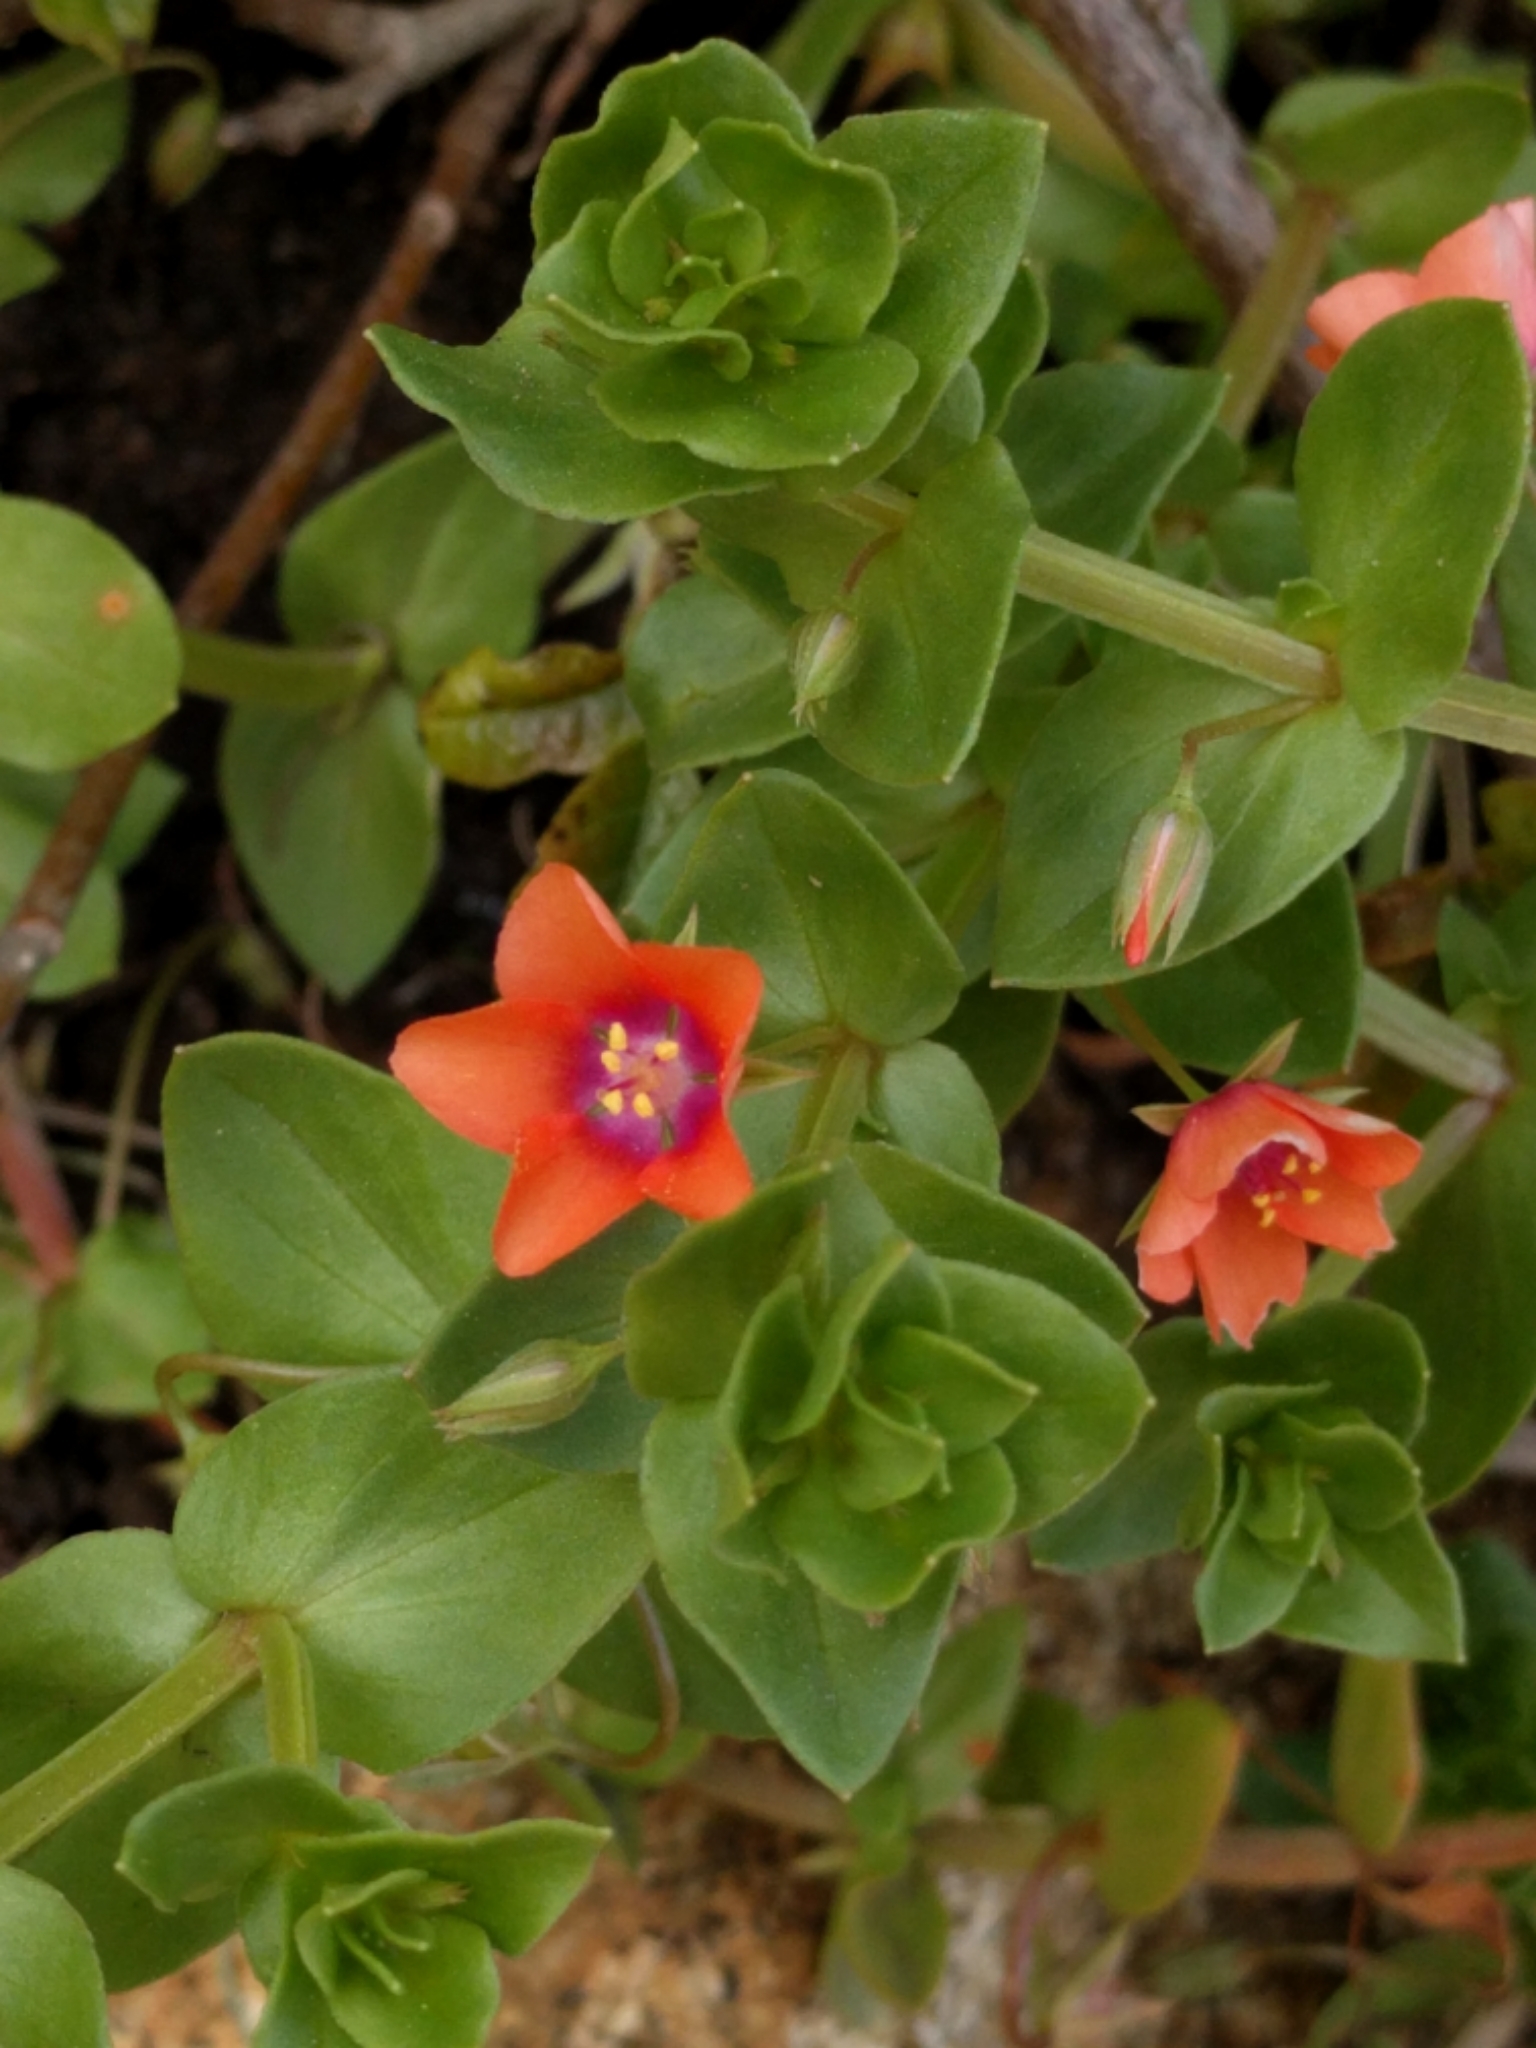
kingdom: Plantae
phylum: Tracheophyta
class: Magnoliopsida
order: Ericales
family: Primulaceae
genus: Lysimachia
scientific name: Lysimachia arvensis
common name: Scarlet pimpernel
